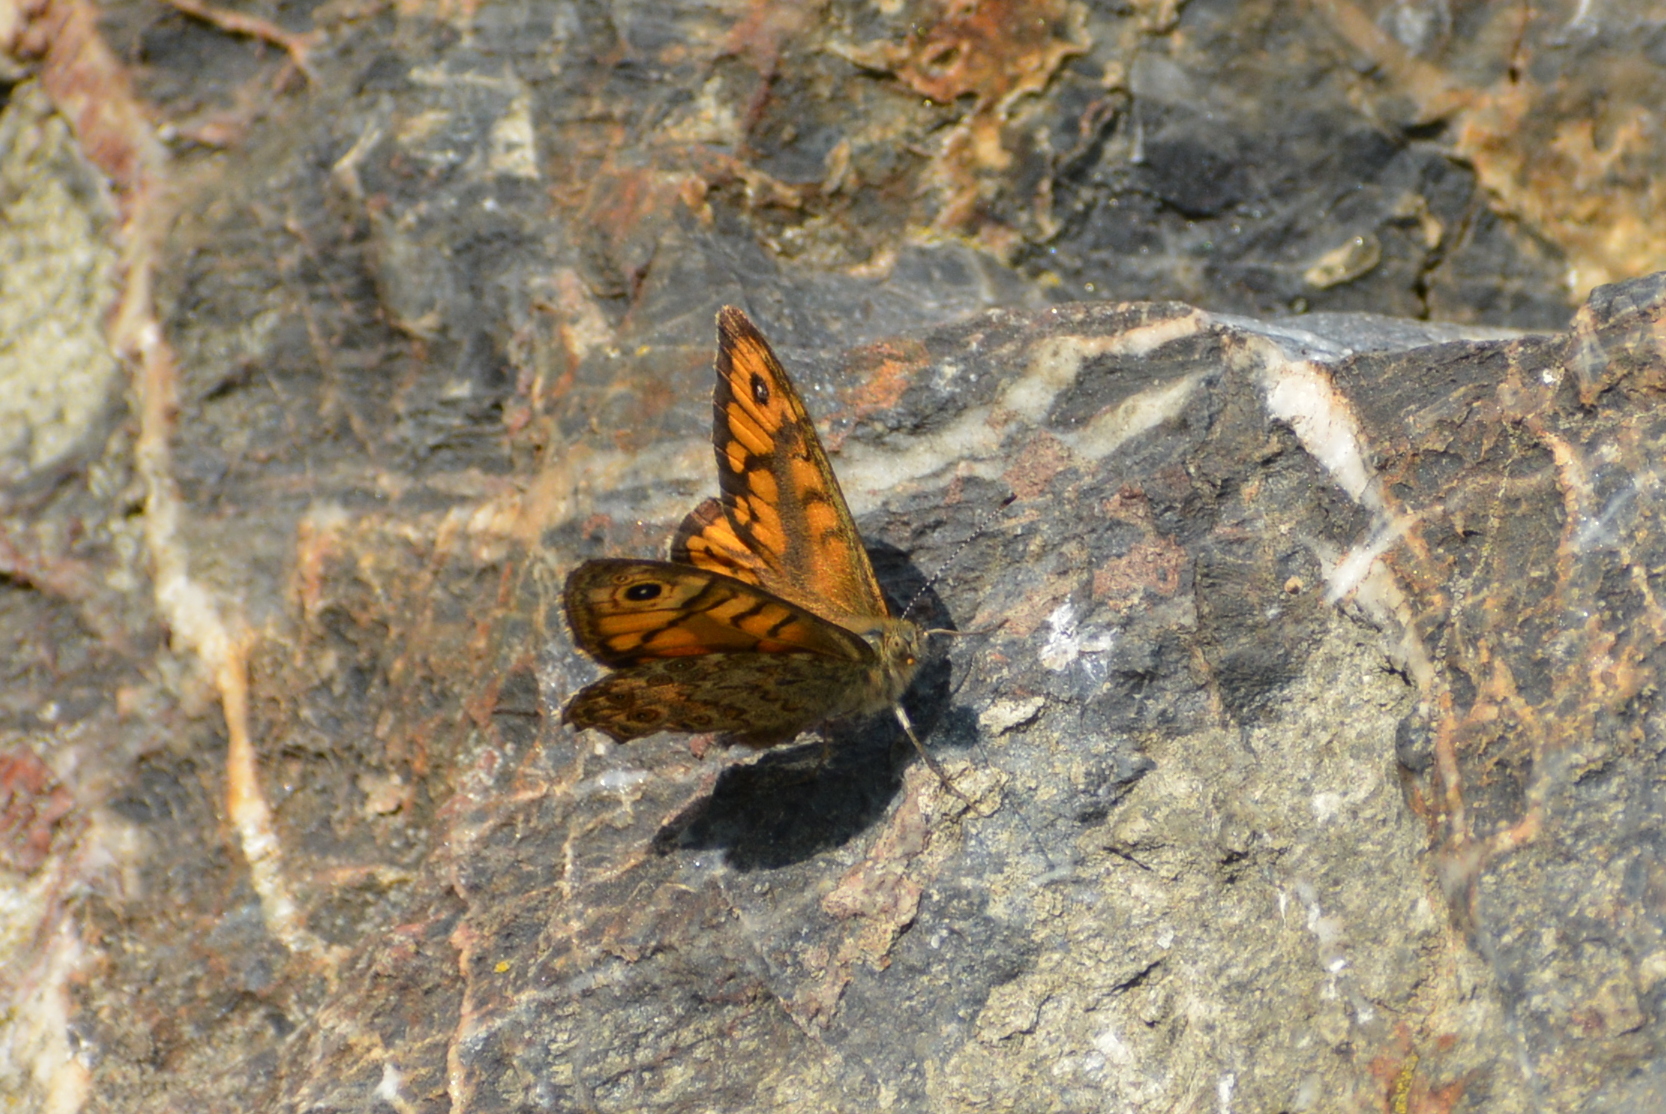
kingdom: Animalia
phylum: Arthropoda
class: Insecta
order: Lepidoptera
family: Nymphalidae
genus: Pararge
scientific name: Pararge Lasiommata megera
